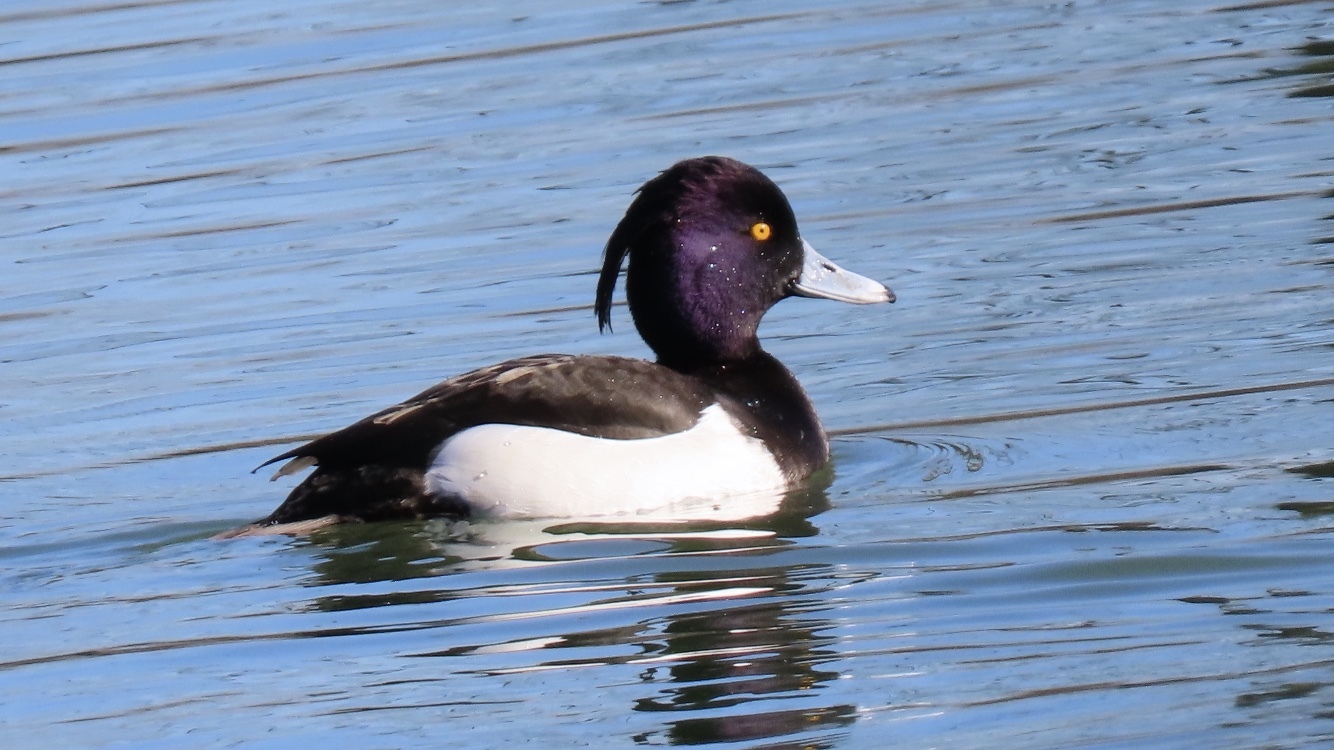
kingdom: Animalia
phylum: Chordata
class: Aves
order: Anseriformes
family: Anatidae
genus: Aythya
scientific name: Aythya fuligula
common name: Tufted duck
